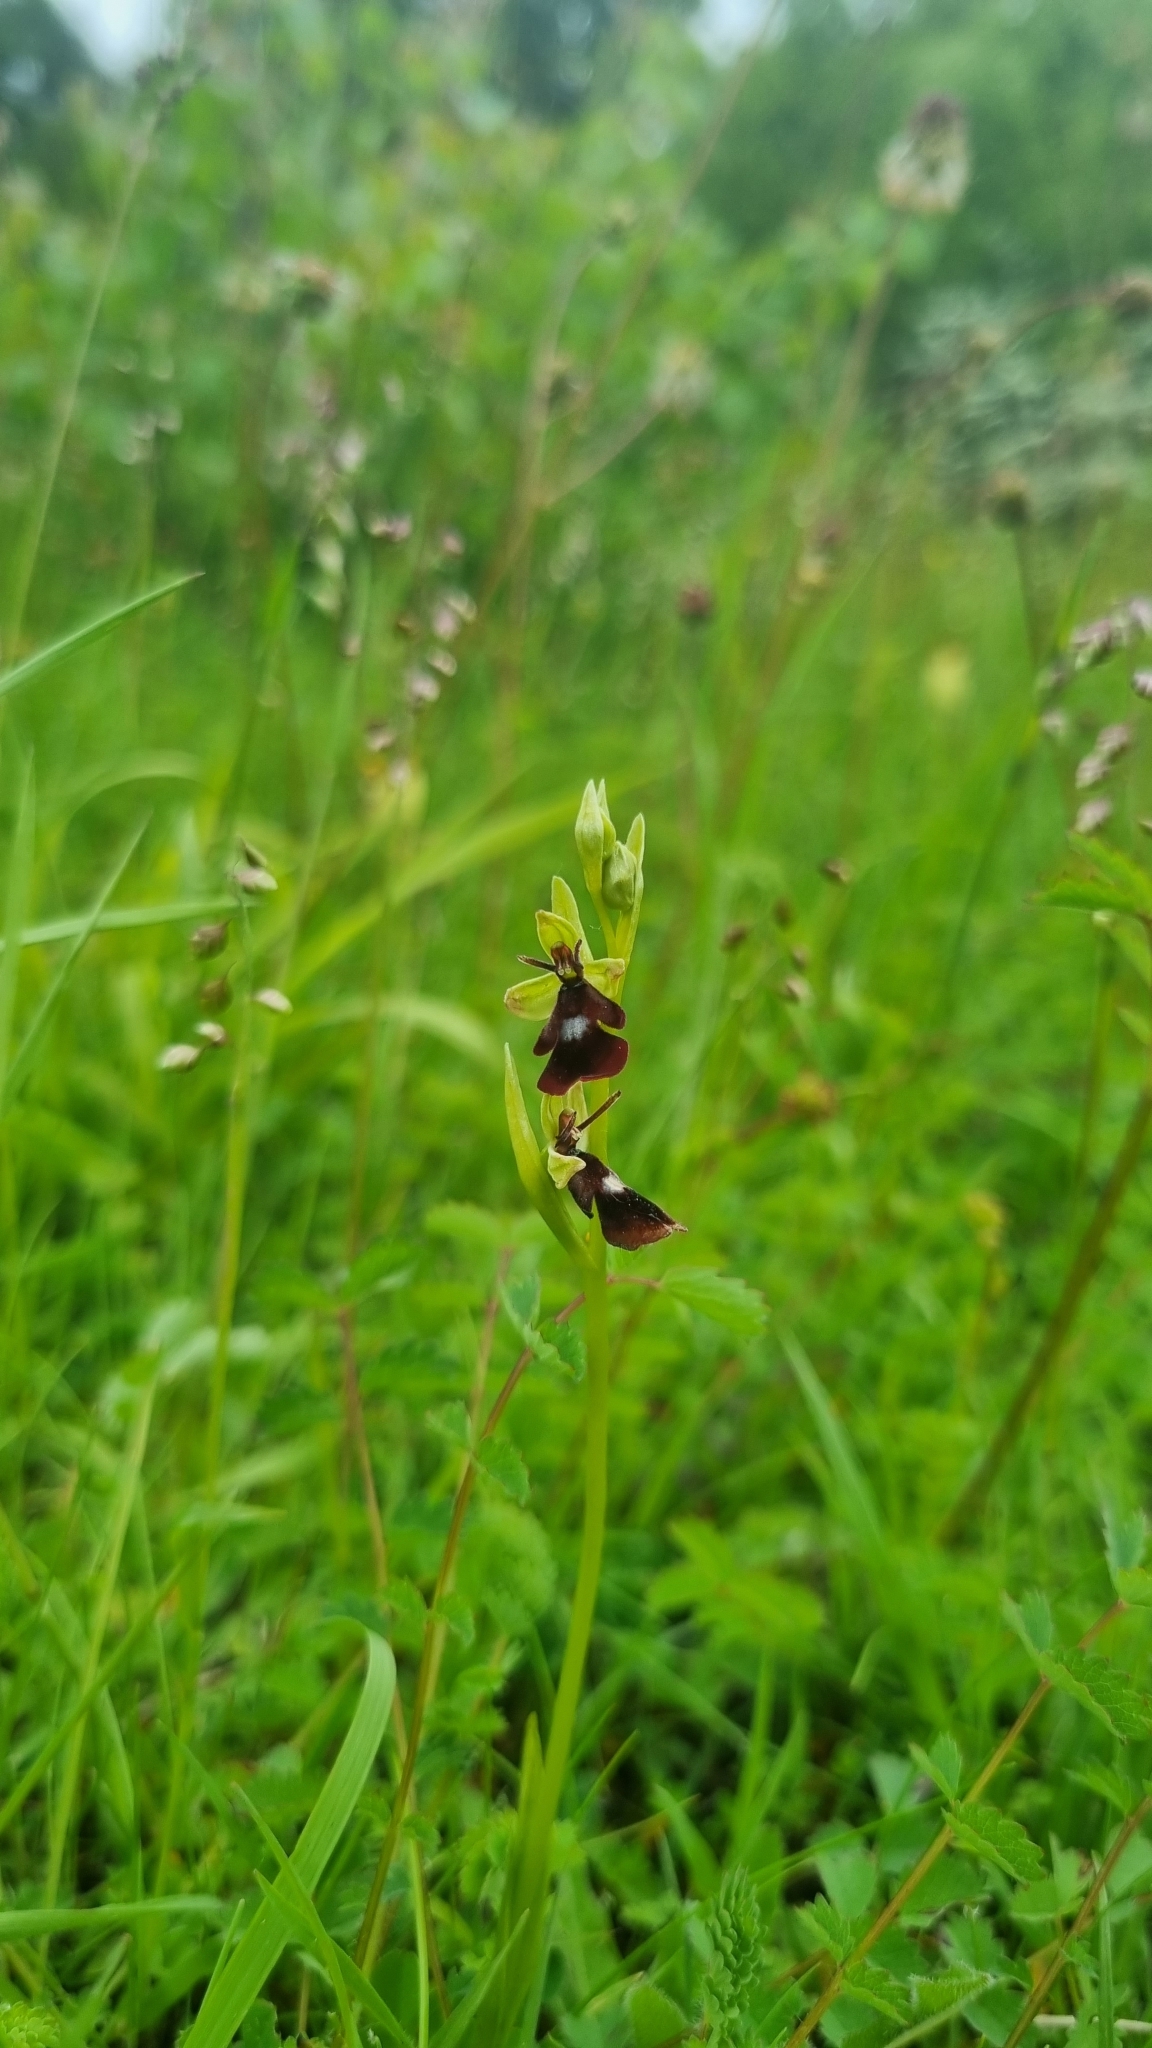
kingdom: Plantae
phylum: Tracheophyta
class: Liliopsida
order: Asparagales
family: Orchidaceae
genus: Ophrys
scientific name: Ophrys insectifera
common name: Fly orchid
